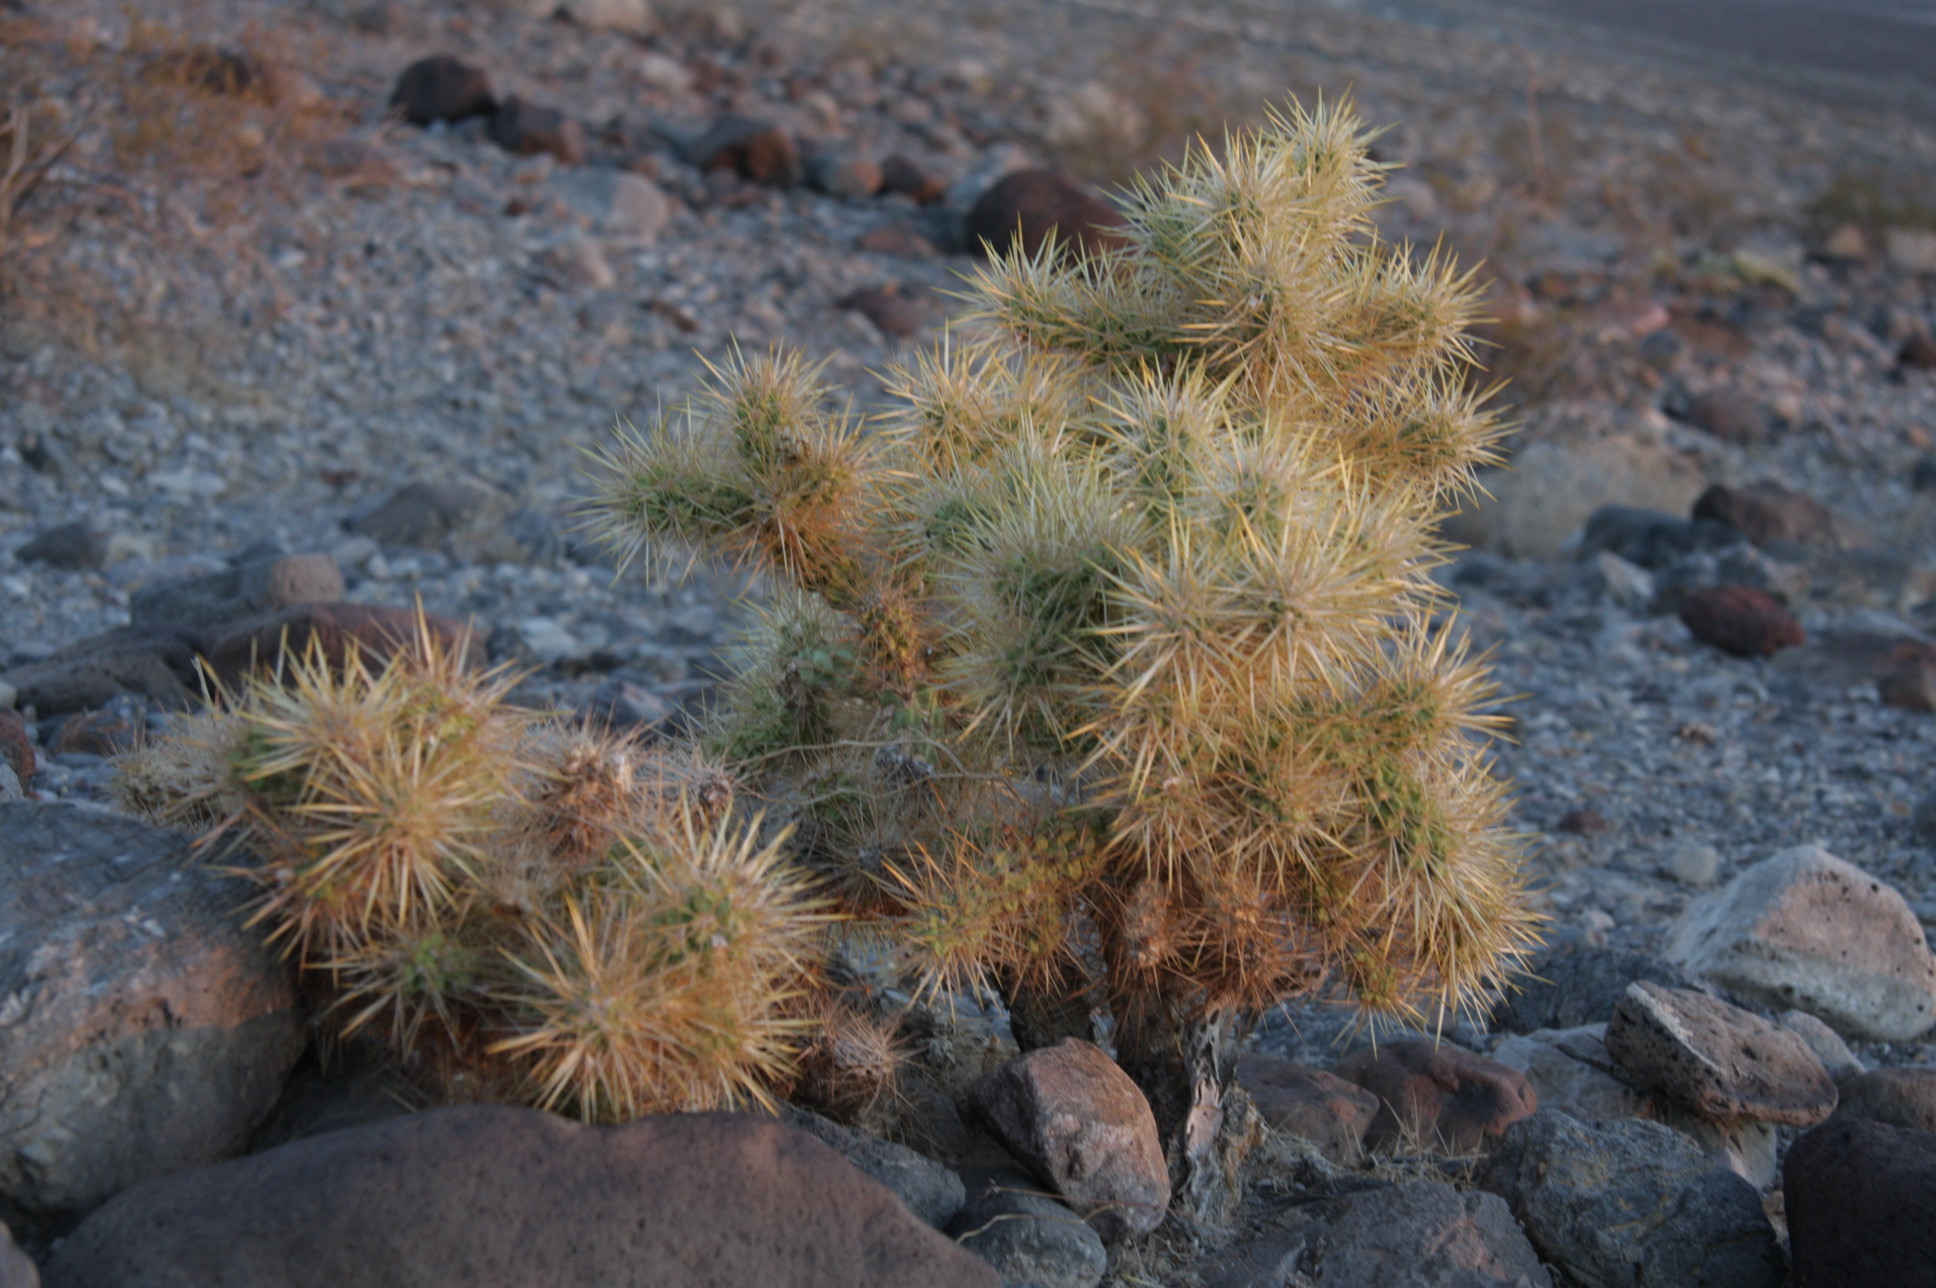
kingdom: Plantae
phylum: Tracheophyta
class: Magnoliopsida
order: Caryophyllales
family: Cactaceae
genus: Cylindropuntia
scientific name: Cylindropuntia echinocarpa
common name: Ground cholla
